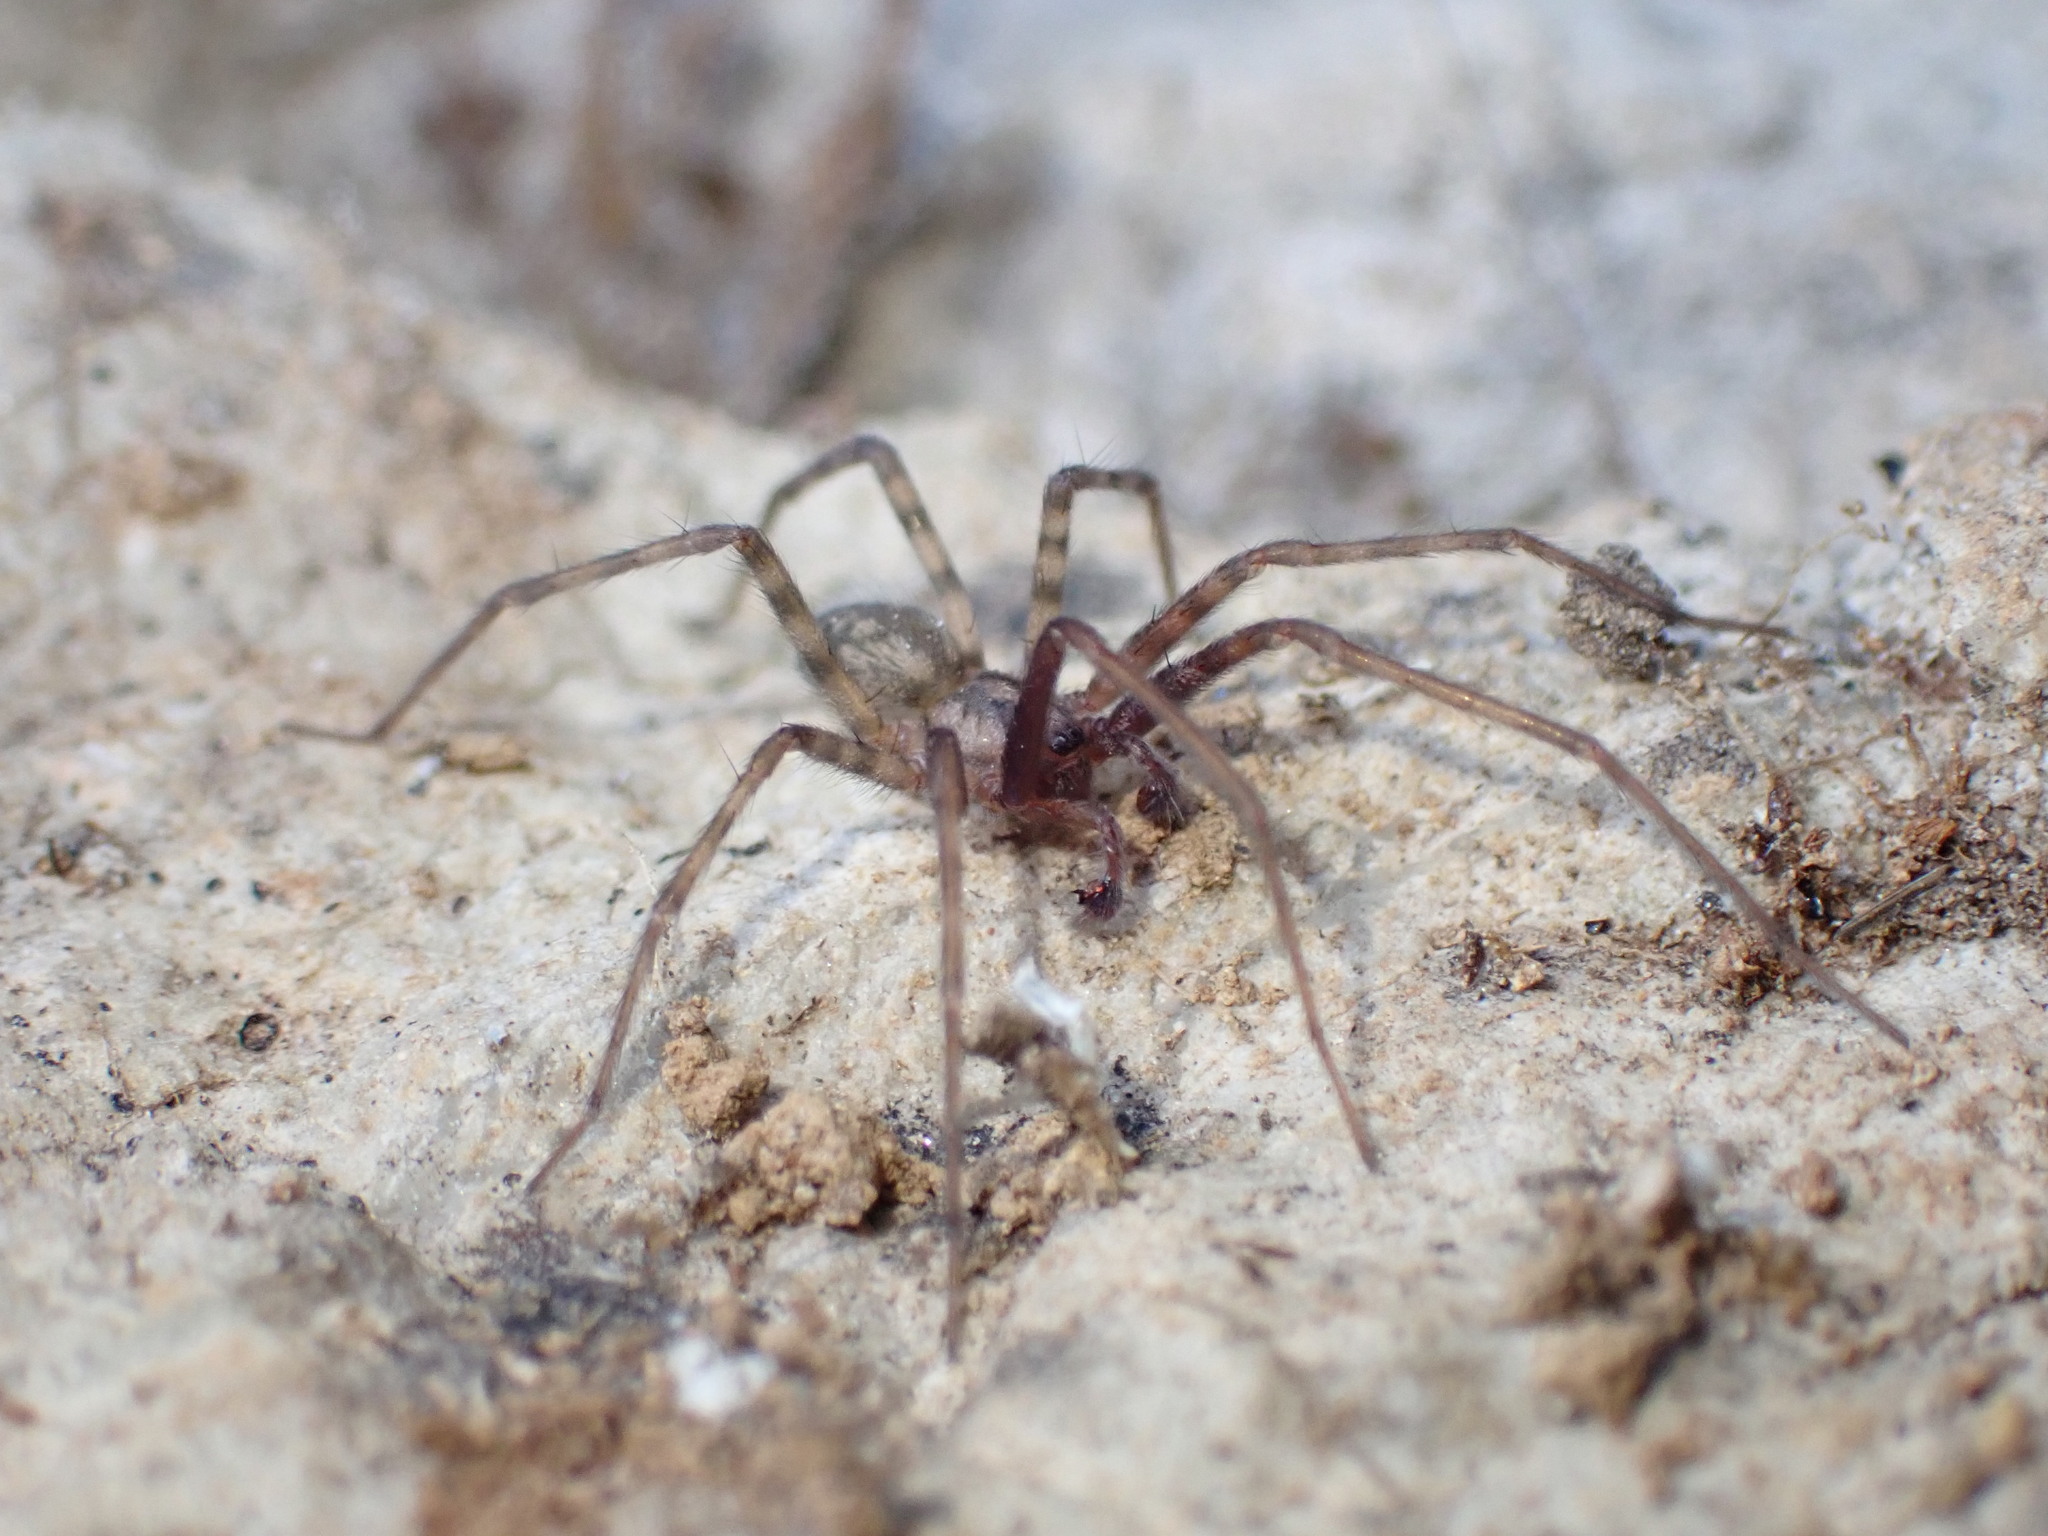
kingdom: Animalia
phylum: Arthropoda
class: Arachnida
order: Araneae
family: Agelenidae
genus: Tegenaria
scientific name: Tegenaria dalmatica
